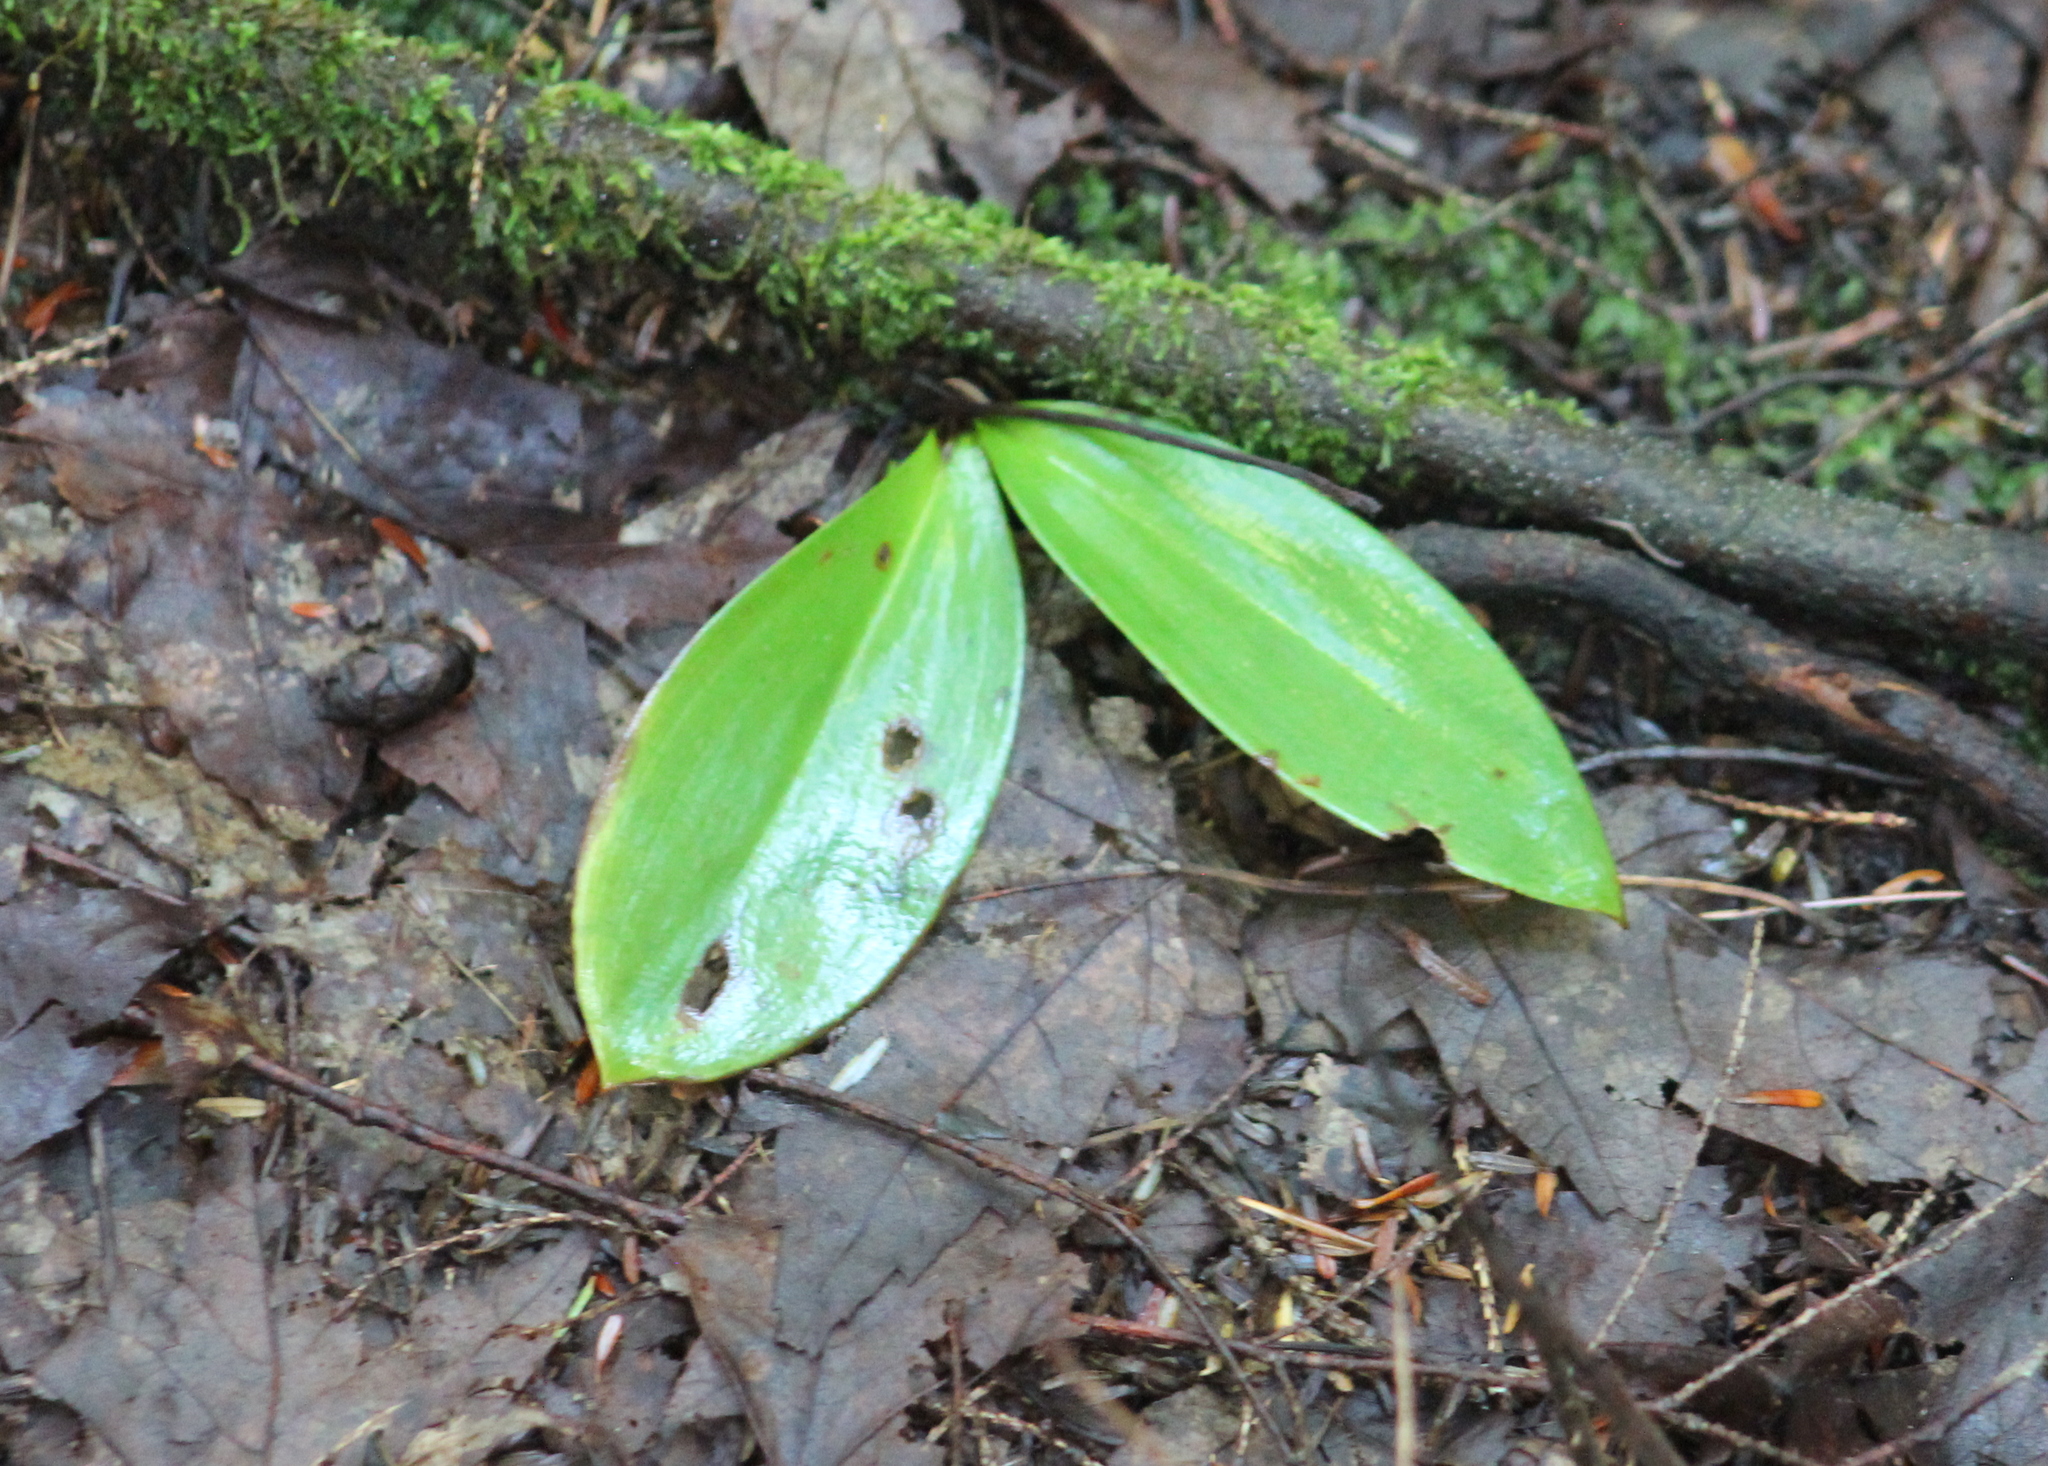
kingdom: Plantae
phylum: Tracheophyta
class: Liliopsida
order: Liliales
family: Liliaceae
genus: Clintonia
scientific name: Clintonia borealis
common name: Yellow clintonia
